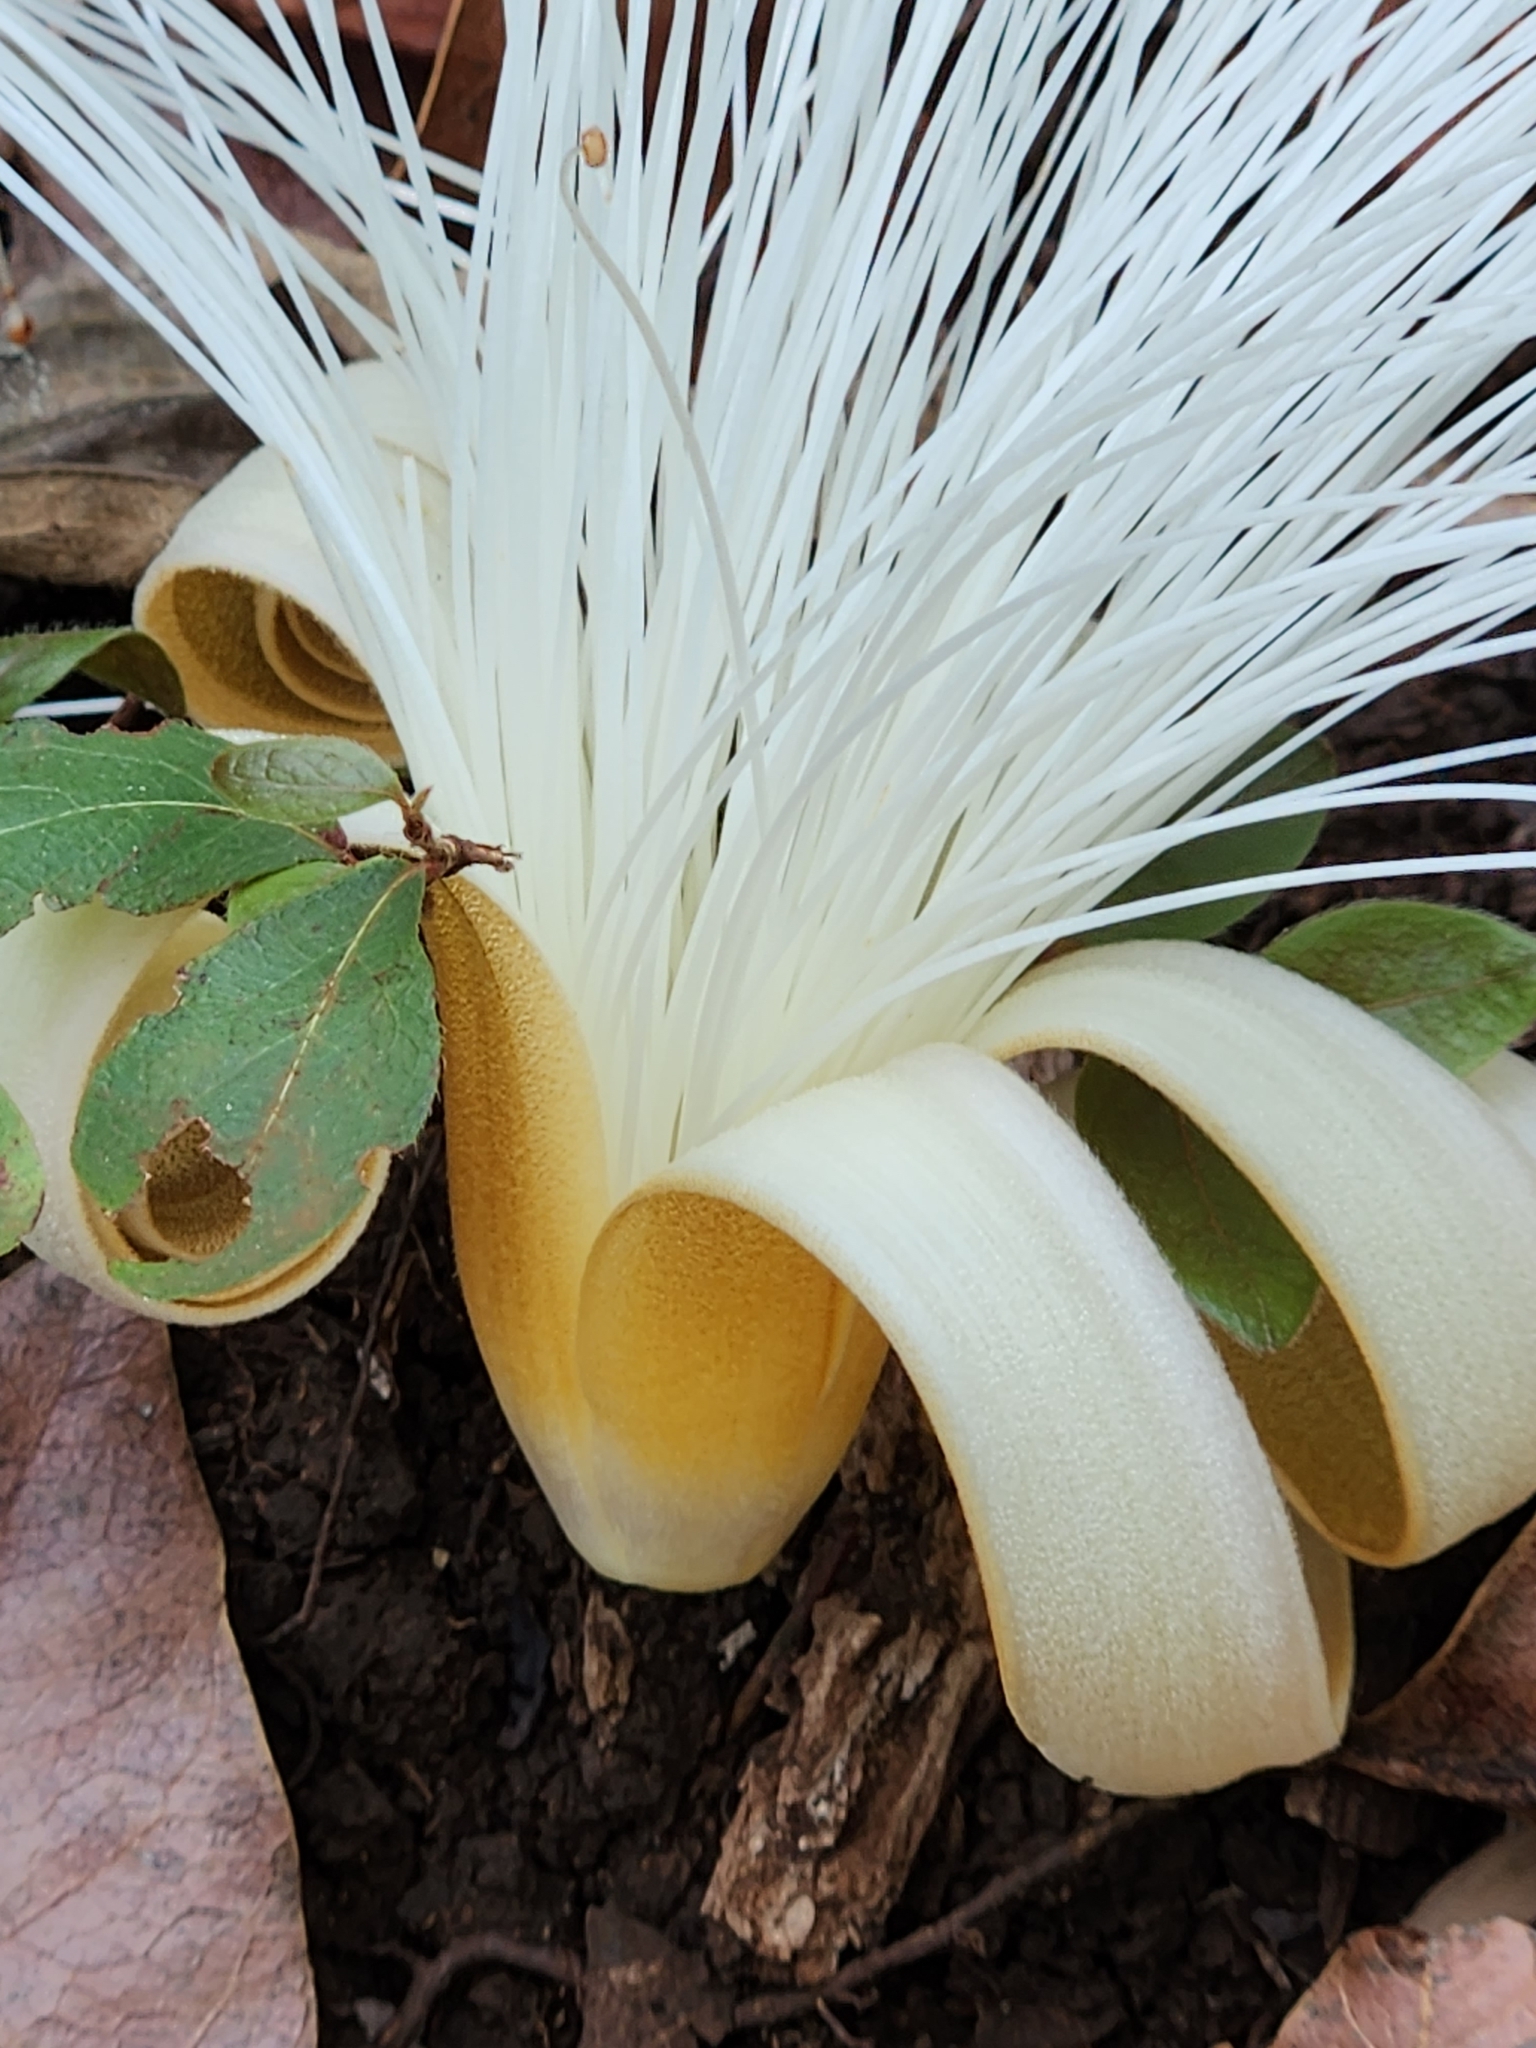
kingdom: Plantae
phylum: Tracheophyta
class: Magnoliopsida
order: Malvales
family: Malvaceae
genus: Pseudobombax
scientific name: Pseudobombax ellipticoideum
